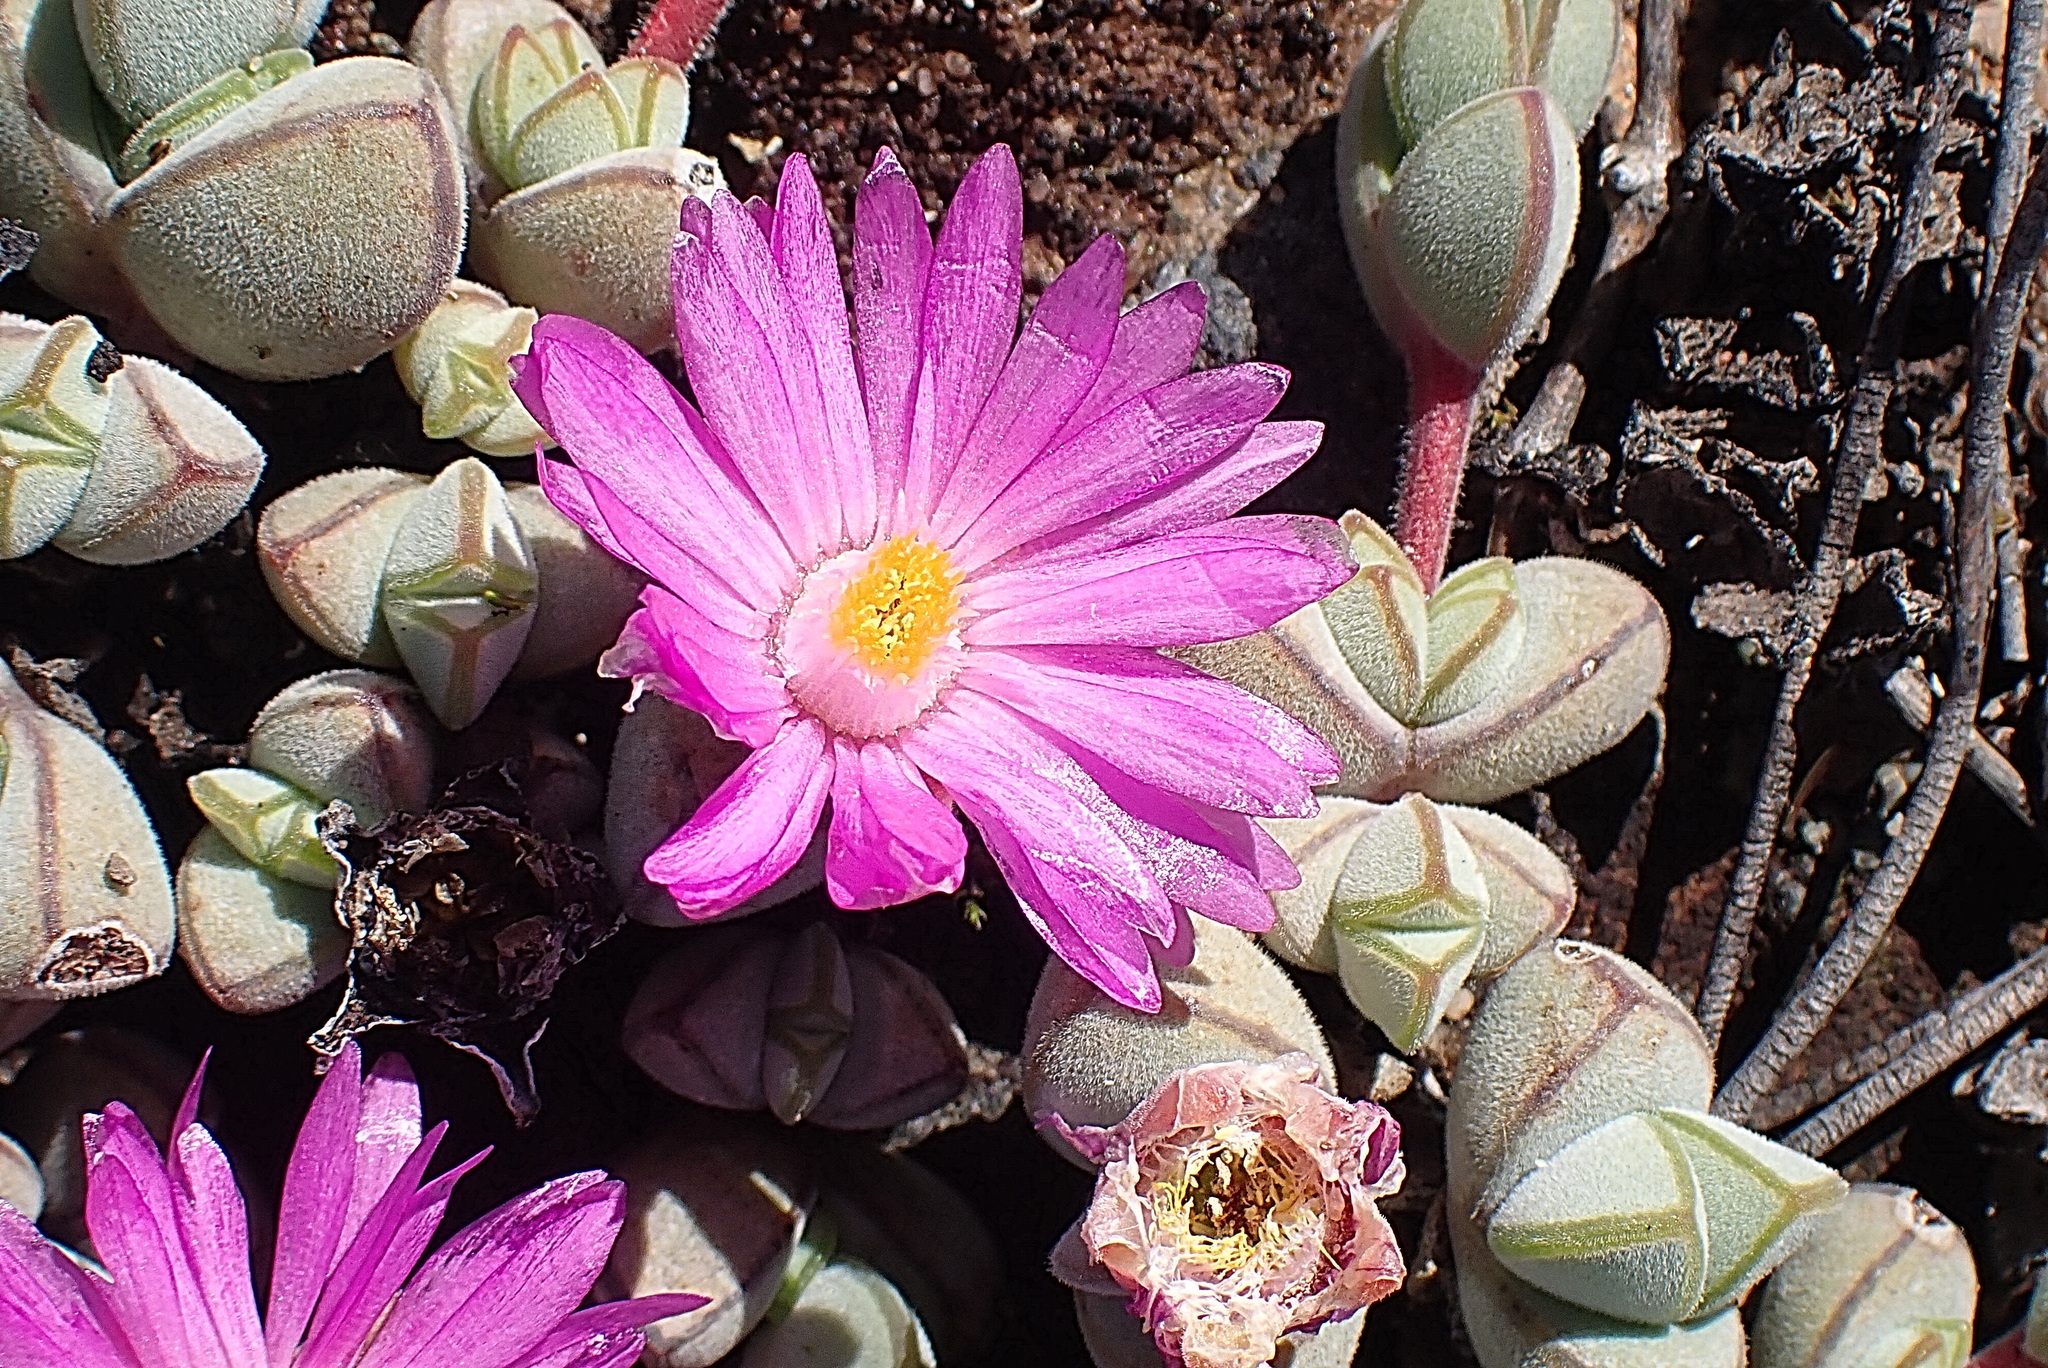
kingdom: Plantae
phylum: Tracheophyta
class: Magnoliopsida
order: Caryophyllales
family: Aizoaceae
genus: Braunsia
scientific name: Braunsia maximiliani
